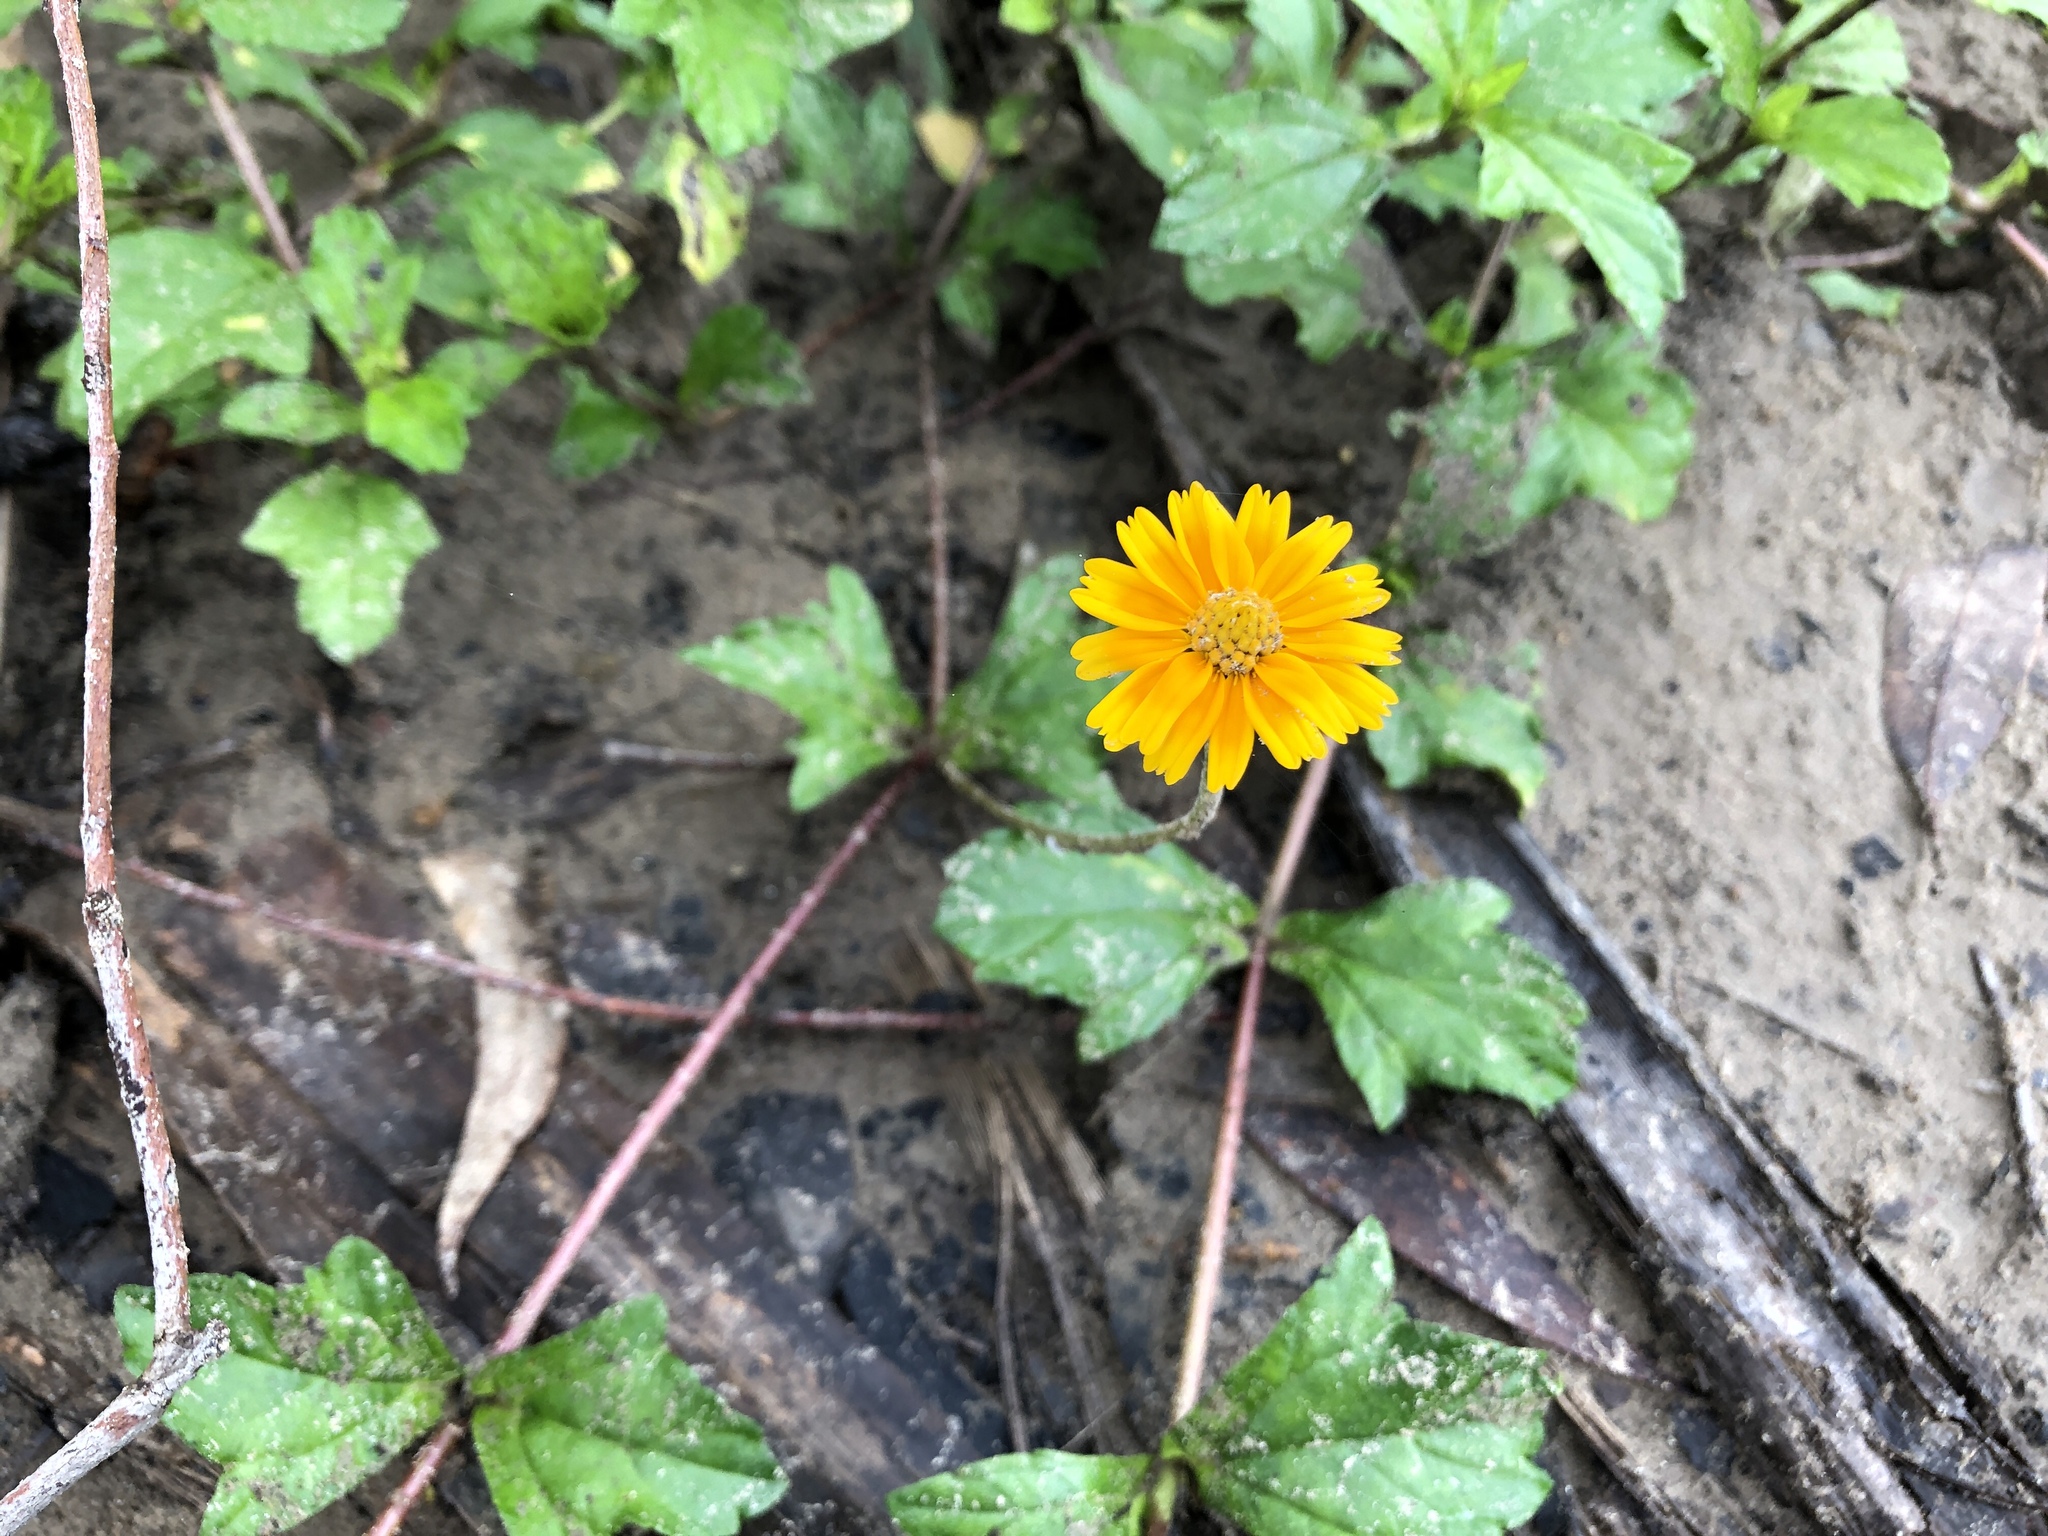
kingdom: Plantae
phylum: Tracheophyta
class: Magnoliopsida
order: Asterales
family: Asteraceae
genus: Sphagneticola
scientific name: Sphagneticola trilobata
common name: Bay biscayne creeping-oxeye
